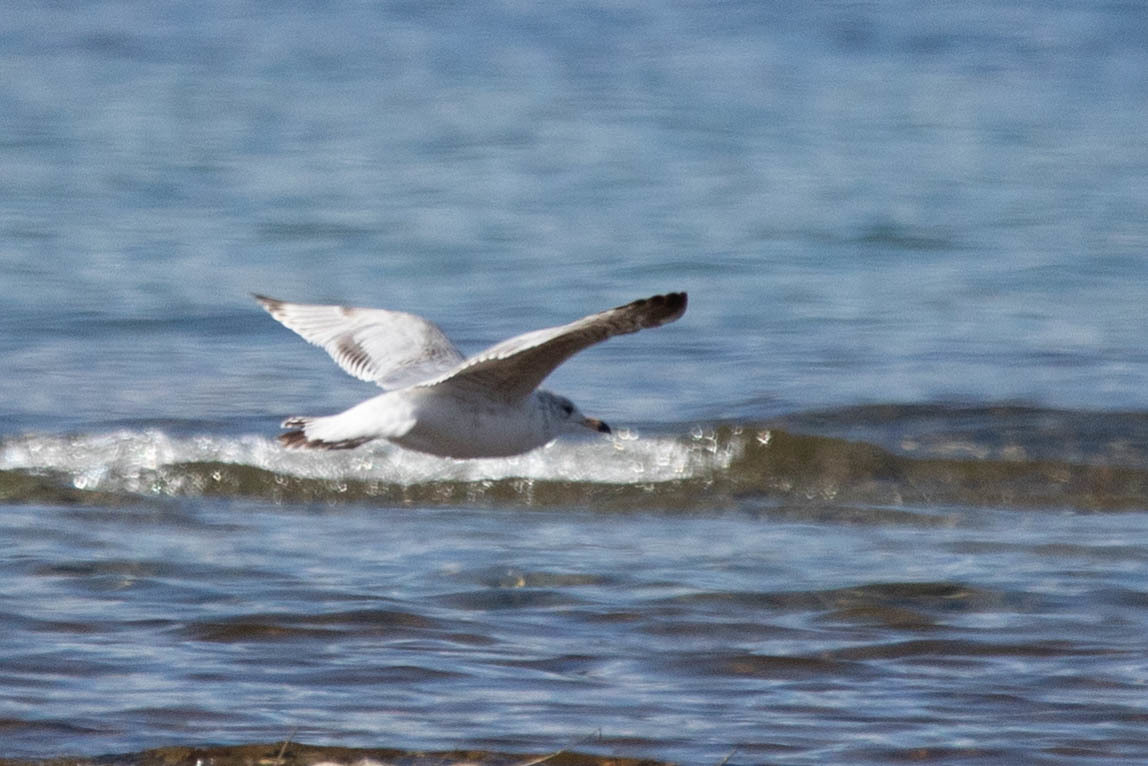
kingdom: Animalia
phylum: Chordata
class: Aves
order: Charadriiformes
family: Laridae
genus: Larus
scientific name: Larus delawarensis
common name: Ring-billed gull
